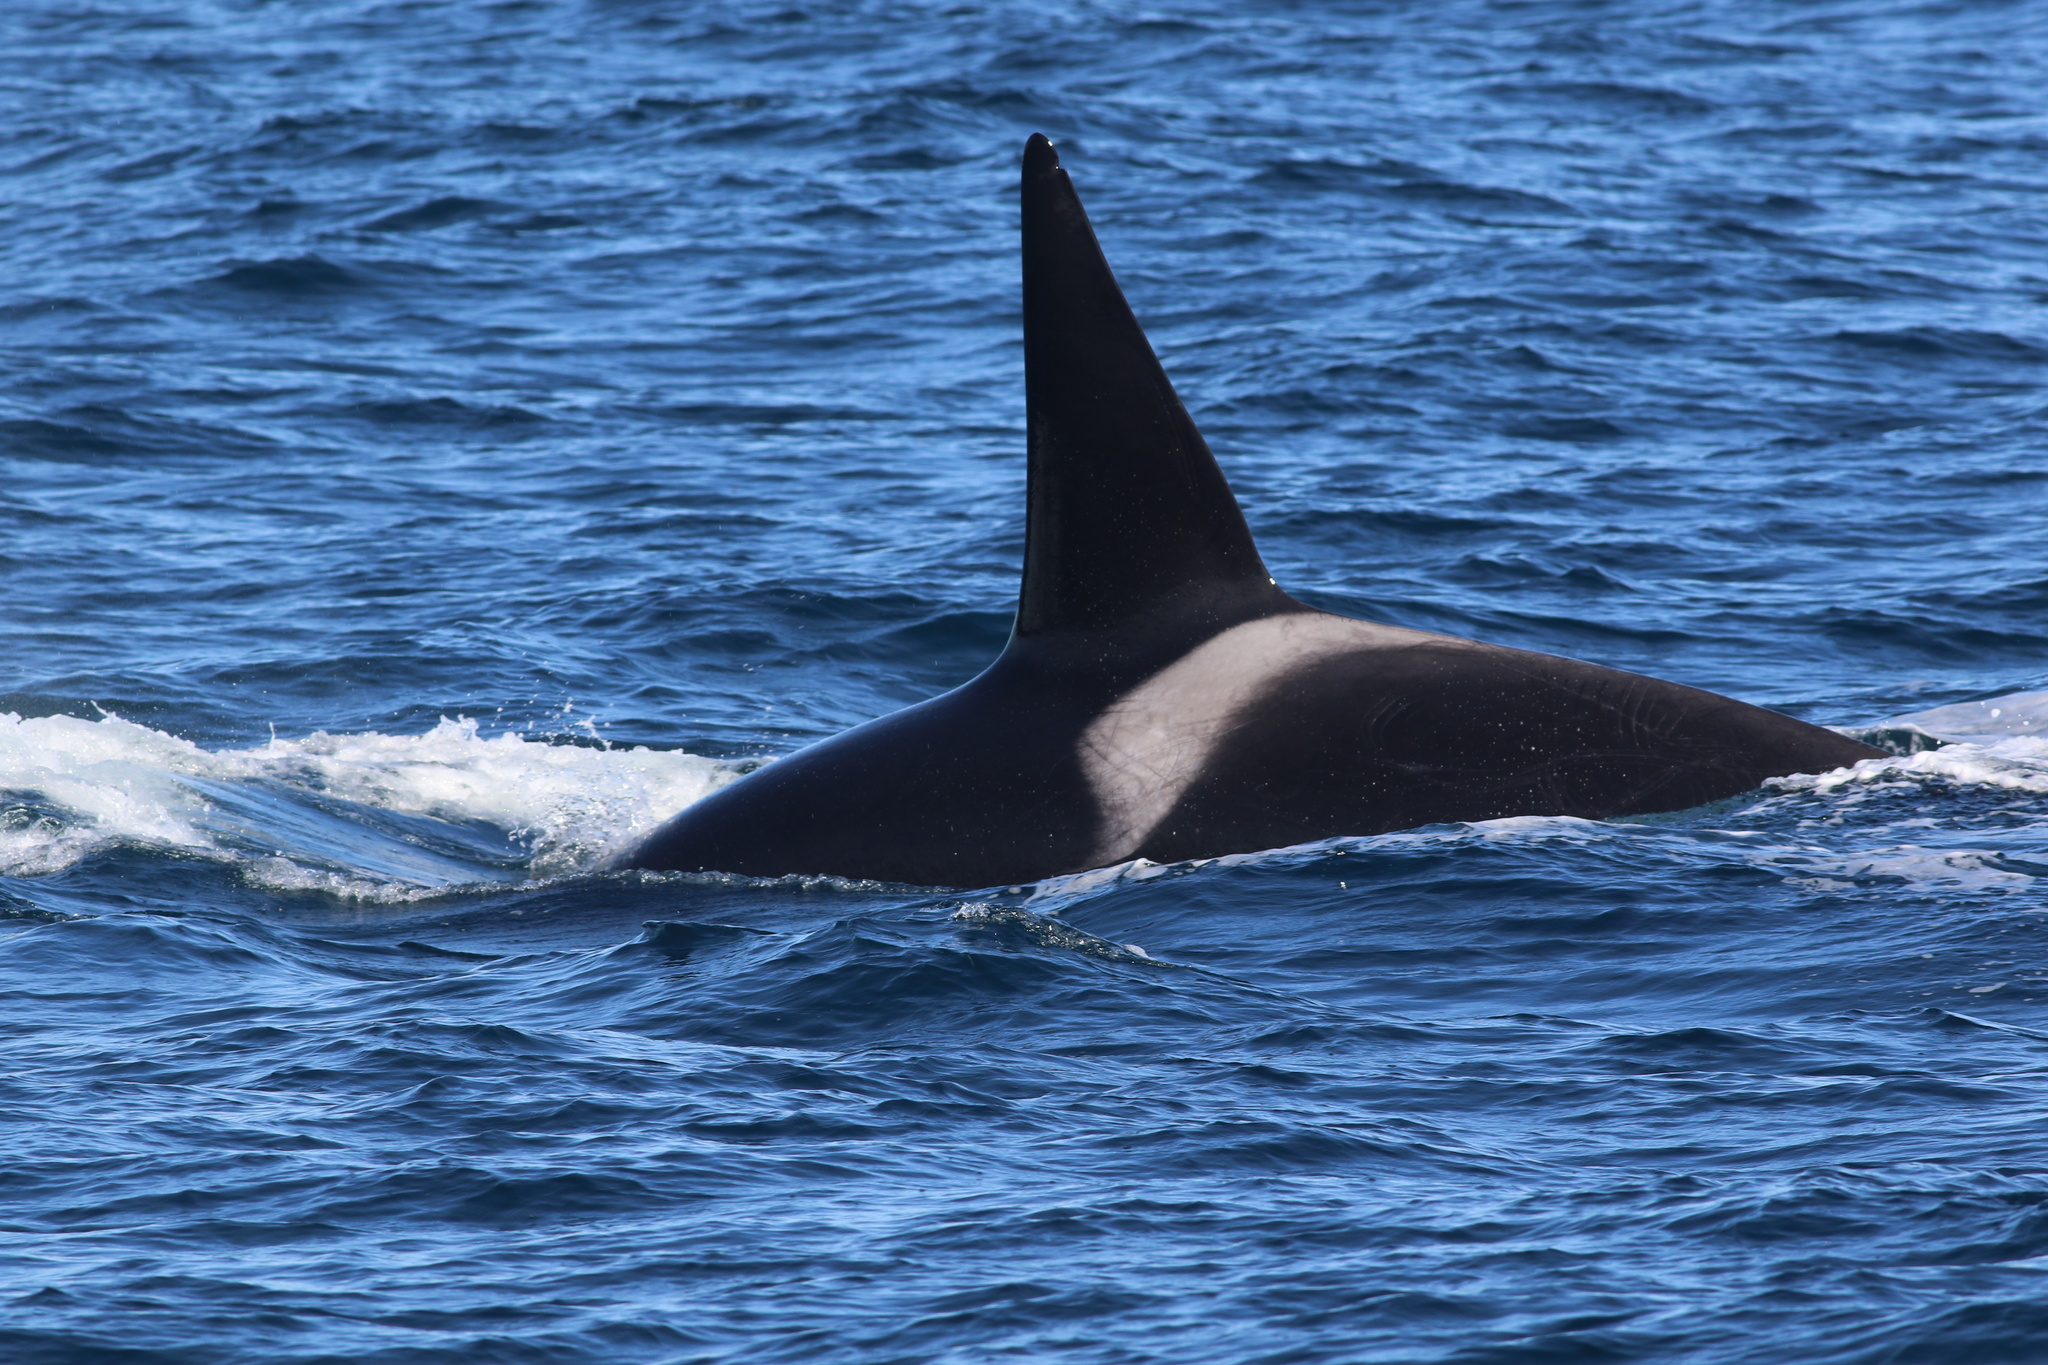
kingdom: Animalia
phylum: Chordata
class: Mammalia
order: Cetacea
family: Delphinidae
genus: Orcinus
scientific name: Orcinus orca
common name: Killer whale
